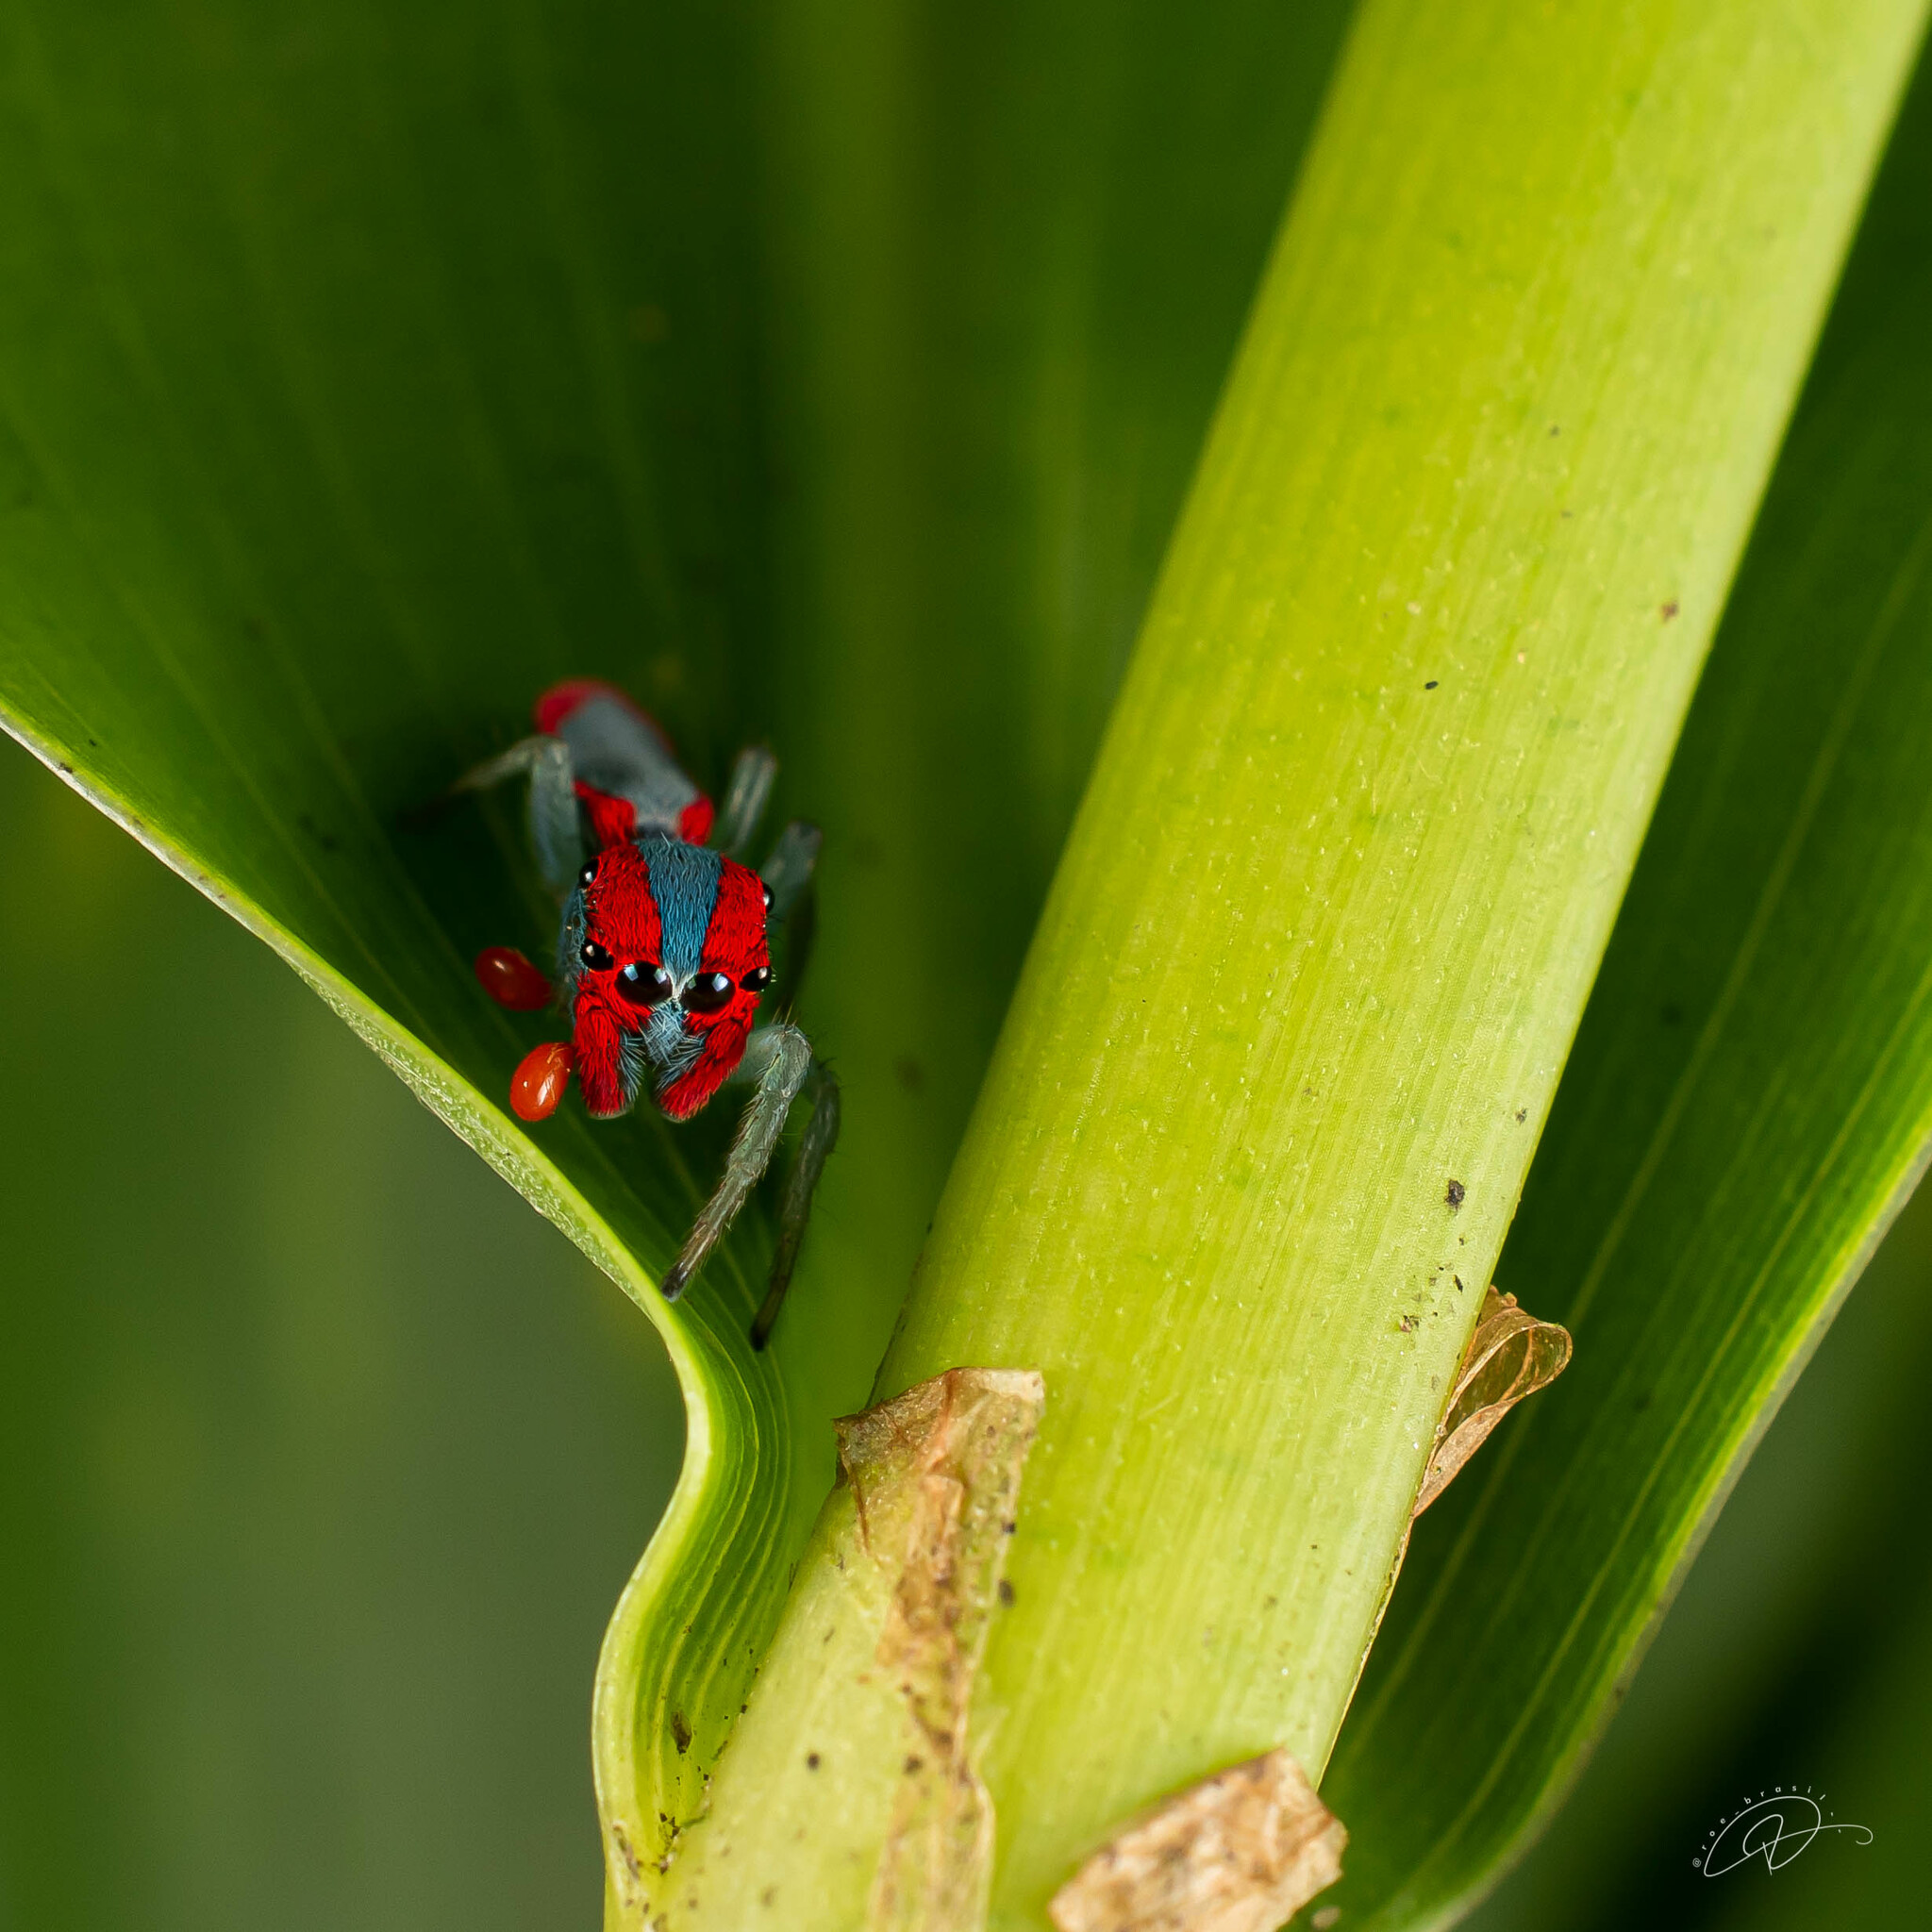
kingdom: Animalia
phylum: Arthropoda
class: Arachnida
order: Araneae
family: Salticidae
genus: Ilargus
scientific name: Ilargus coccineus
